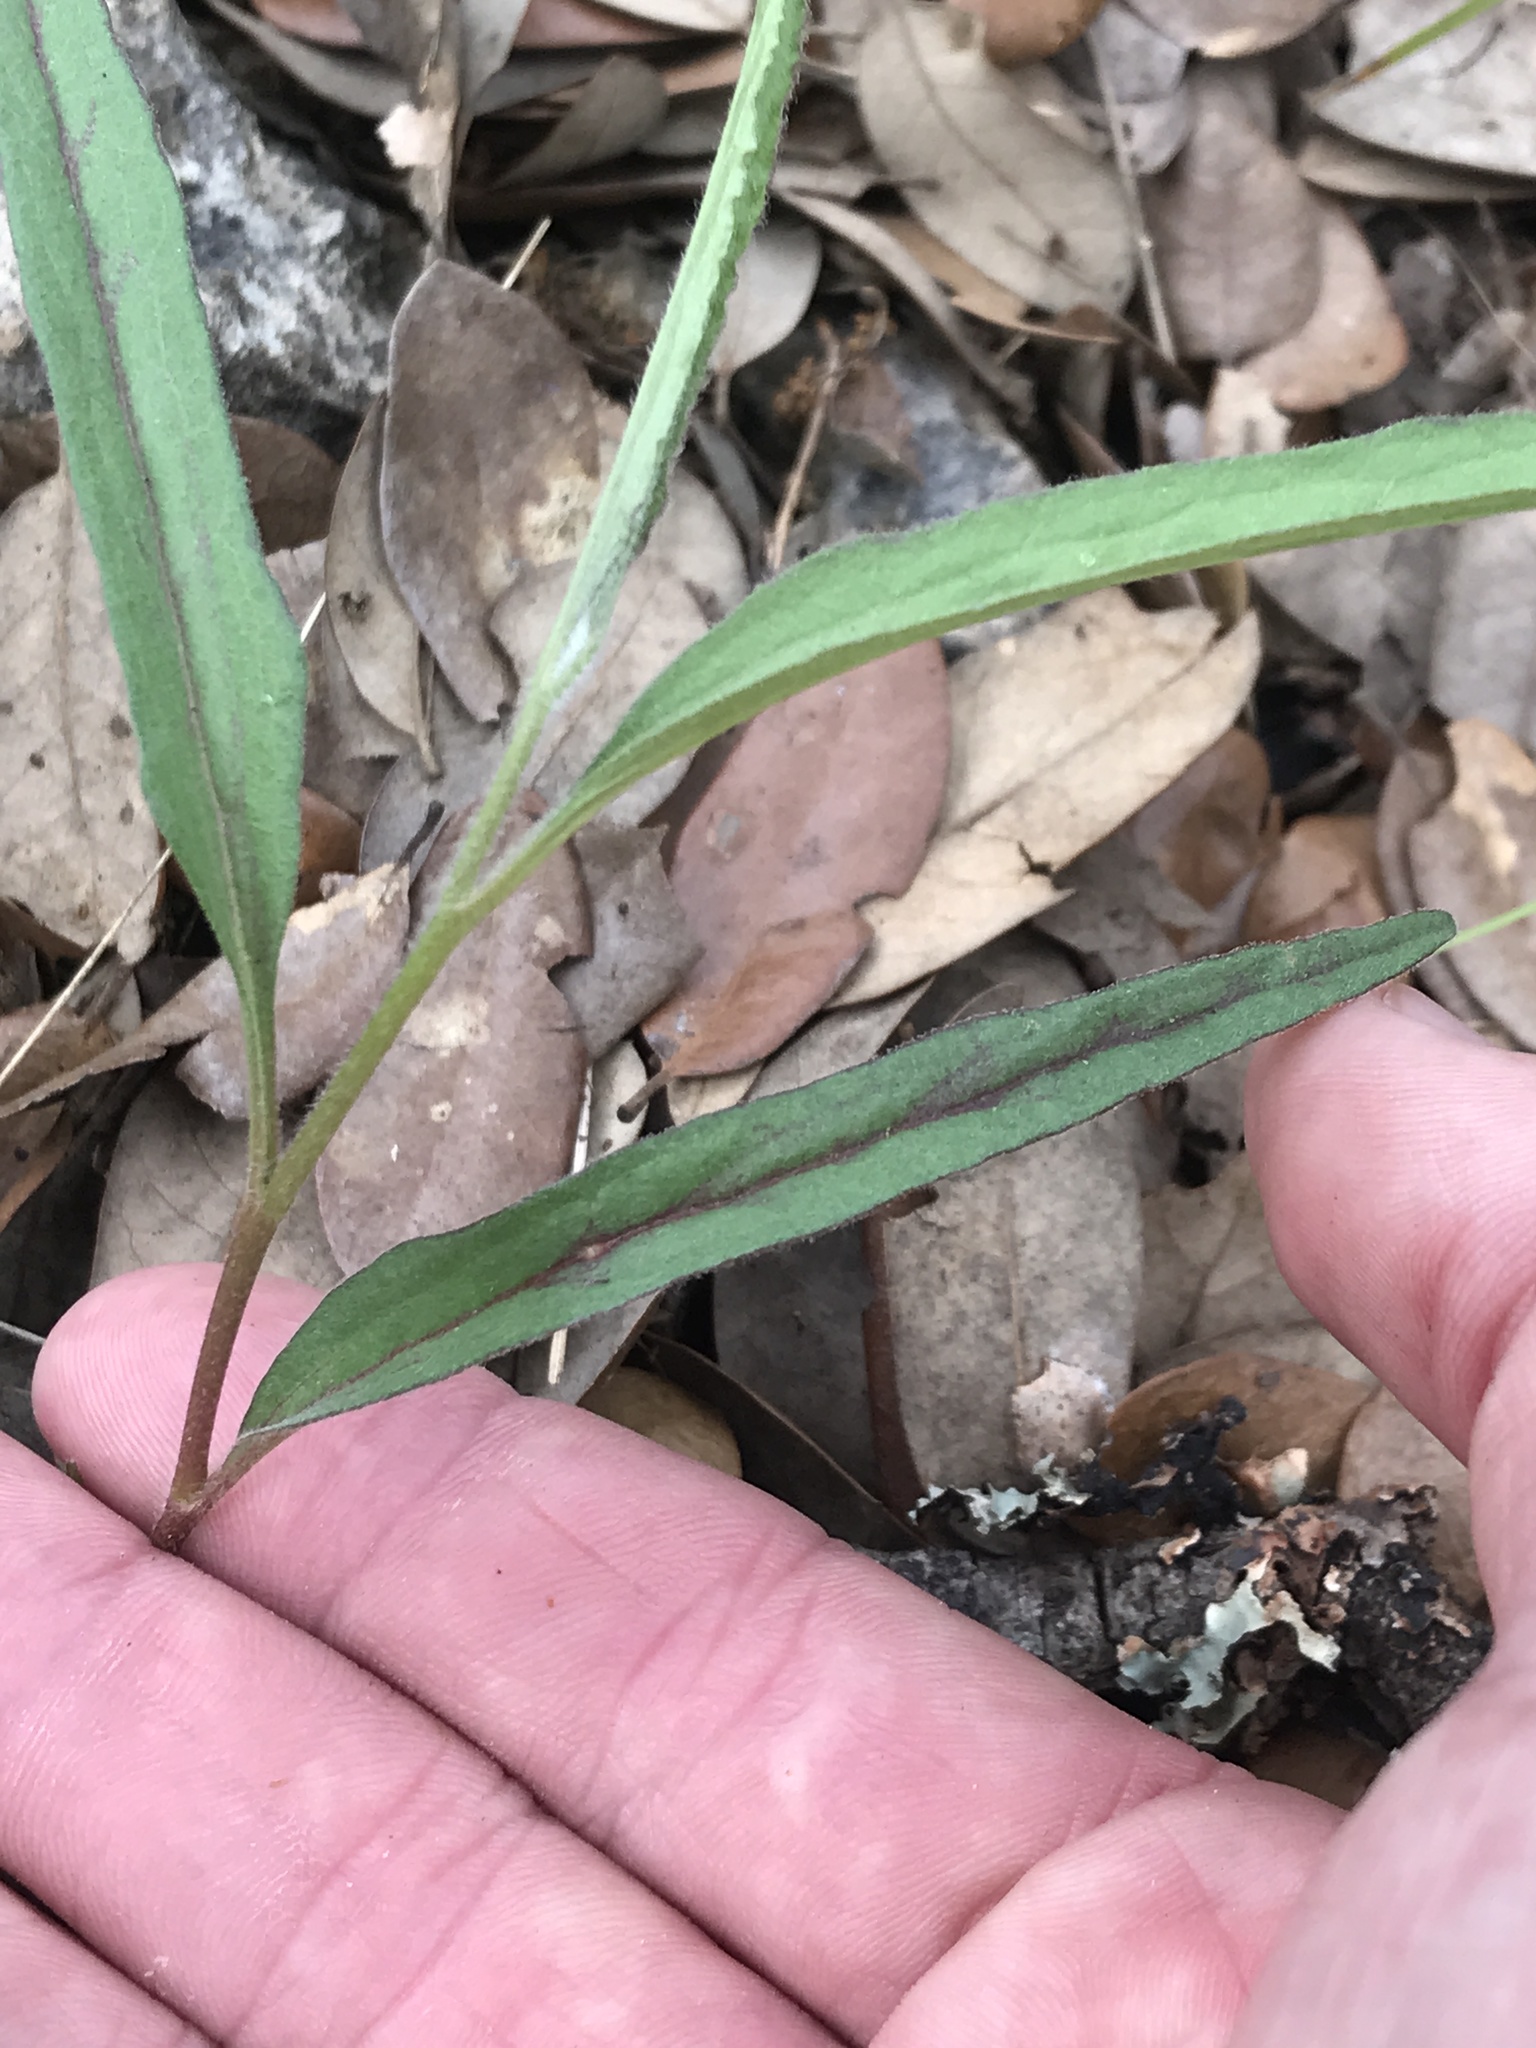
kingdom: Plantae
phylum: Tracheophyta
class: Magnoliopsida
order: Piperales
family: Aristolochiaceae
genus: Aristolochia
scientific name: Aristolochia erecta
